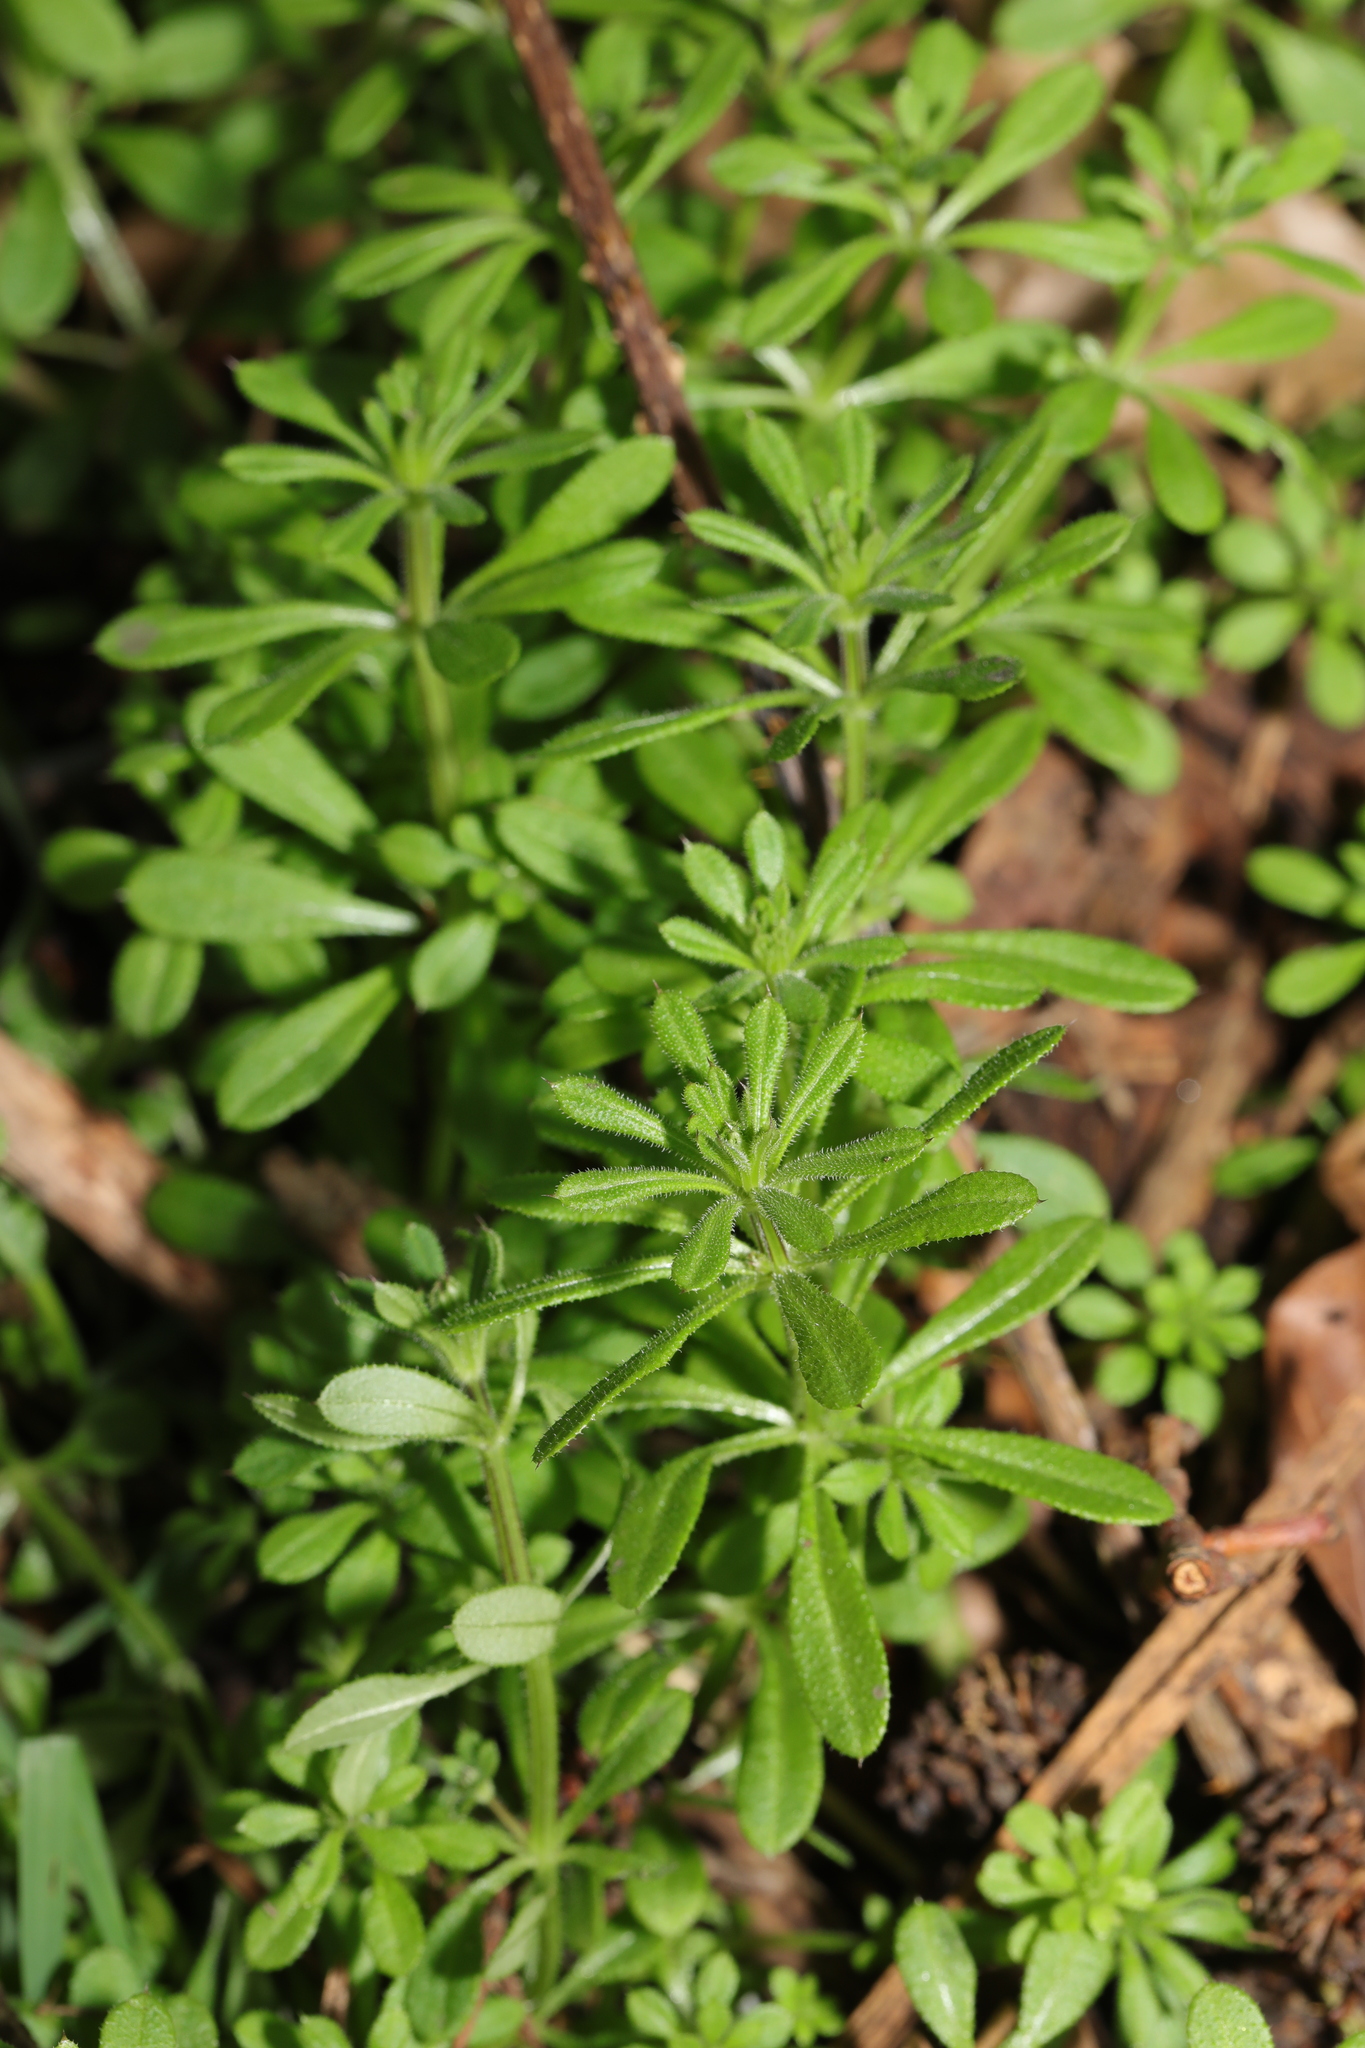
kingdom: Plantae
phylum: Tracheophyta
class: Magnoliopsida
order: Gentianales
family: Rubiaceae
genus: Galium
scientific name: Galium aparine
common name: Cleavers
